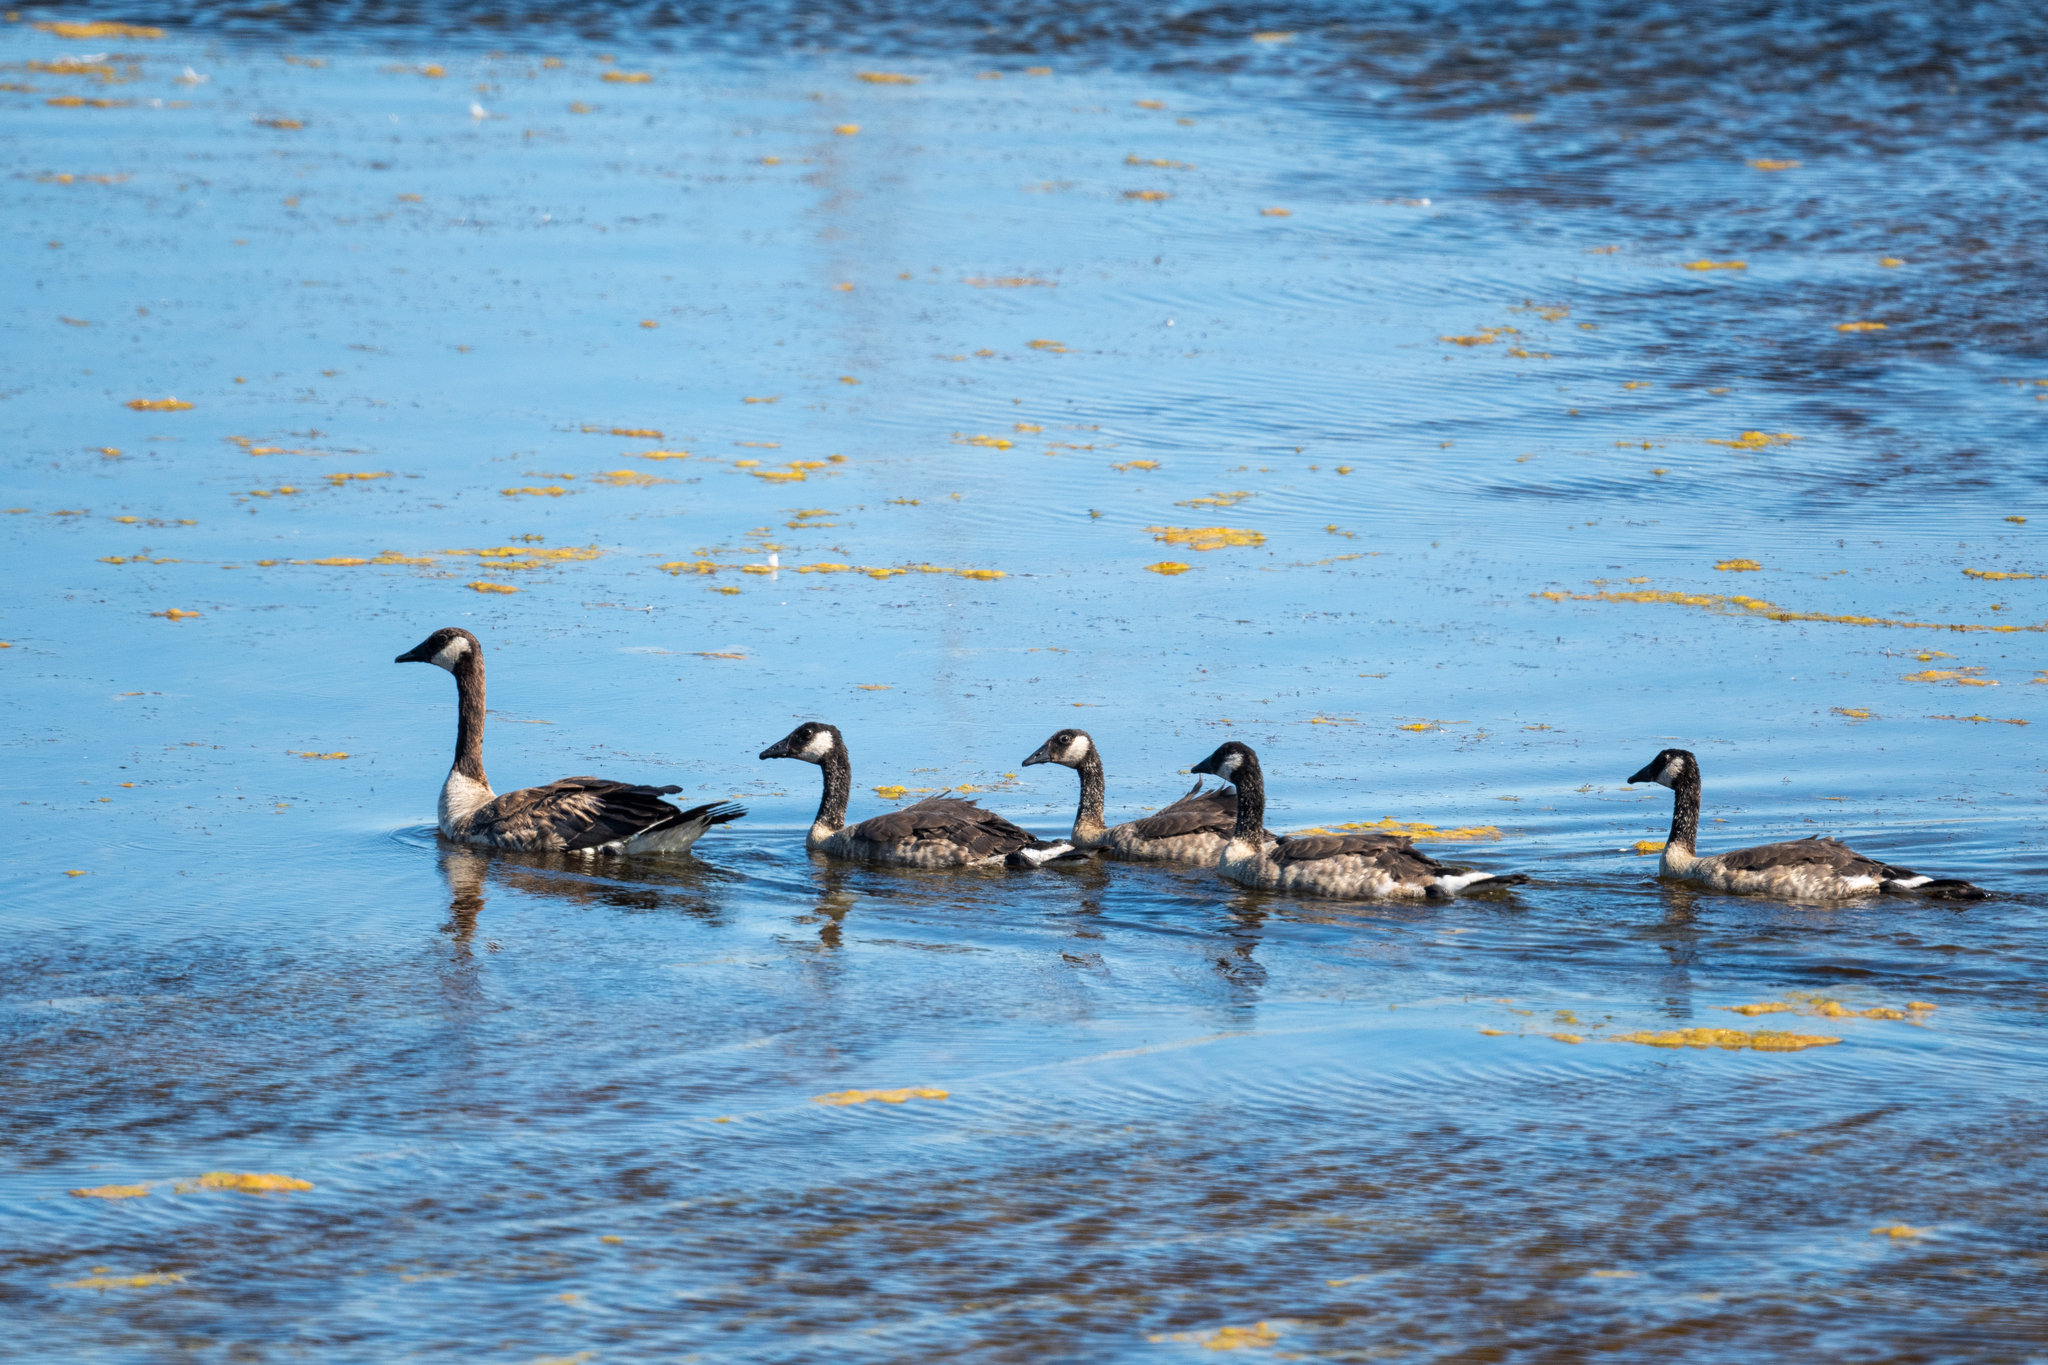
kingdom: Animalia
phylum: Chordata
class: Aves
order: Anseriformes
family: Anatidae
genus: Branta
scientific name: Branta canadensis
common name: Canada goose
